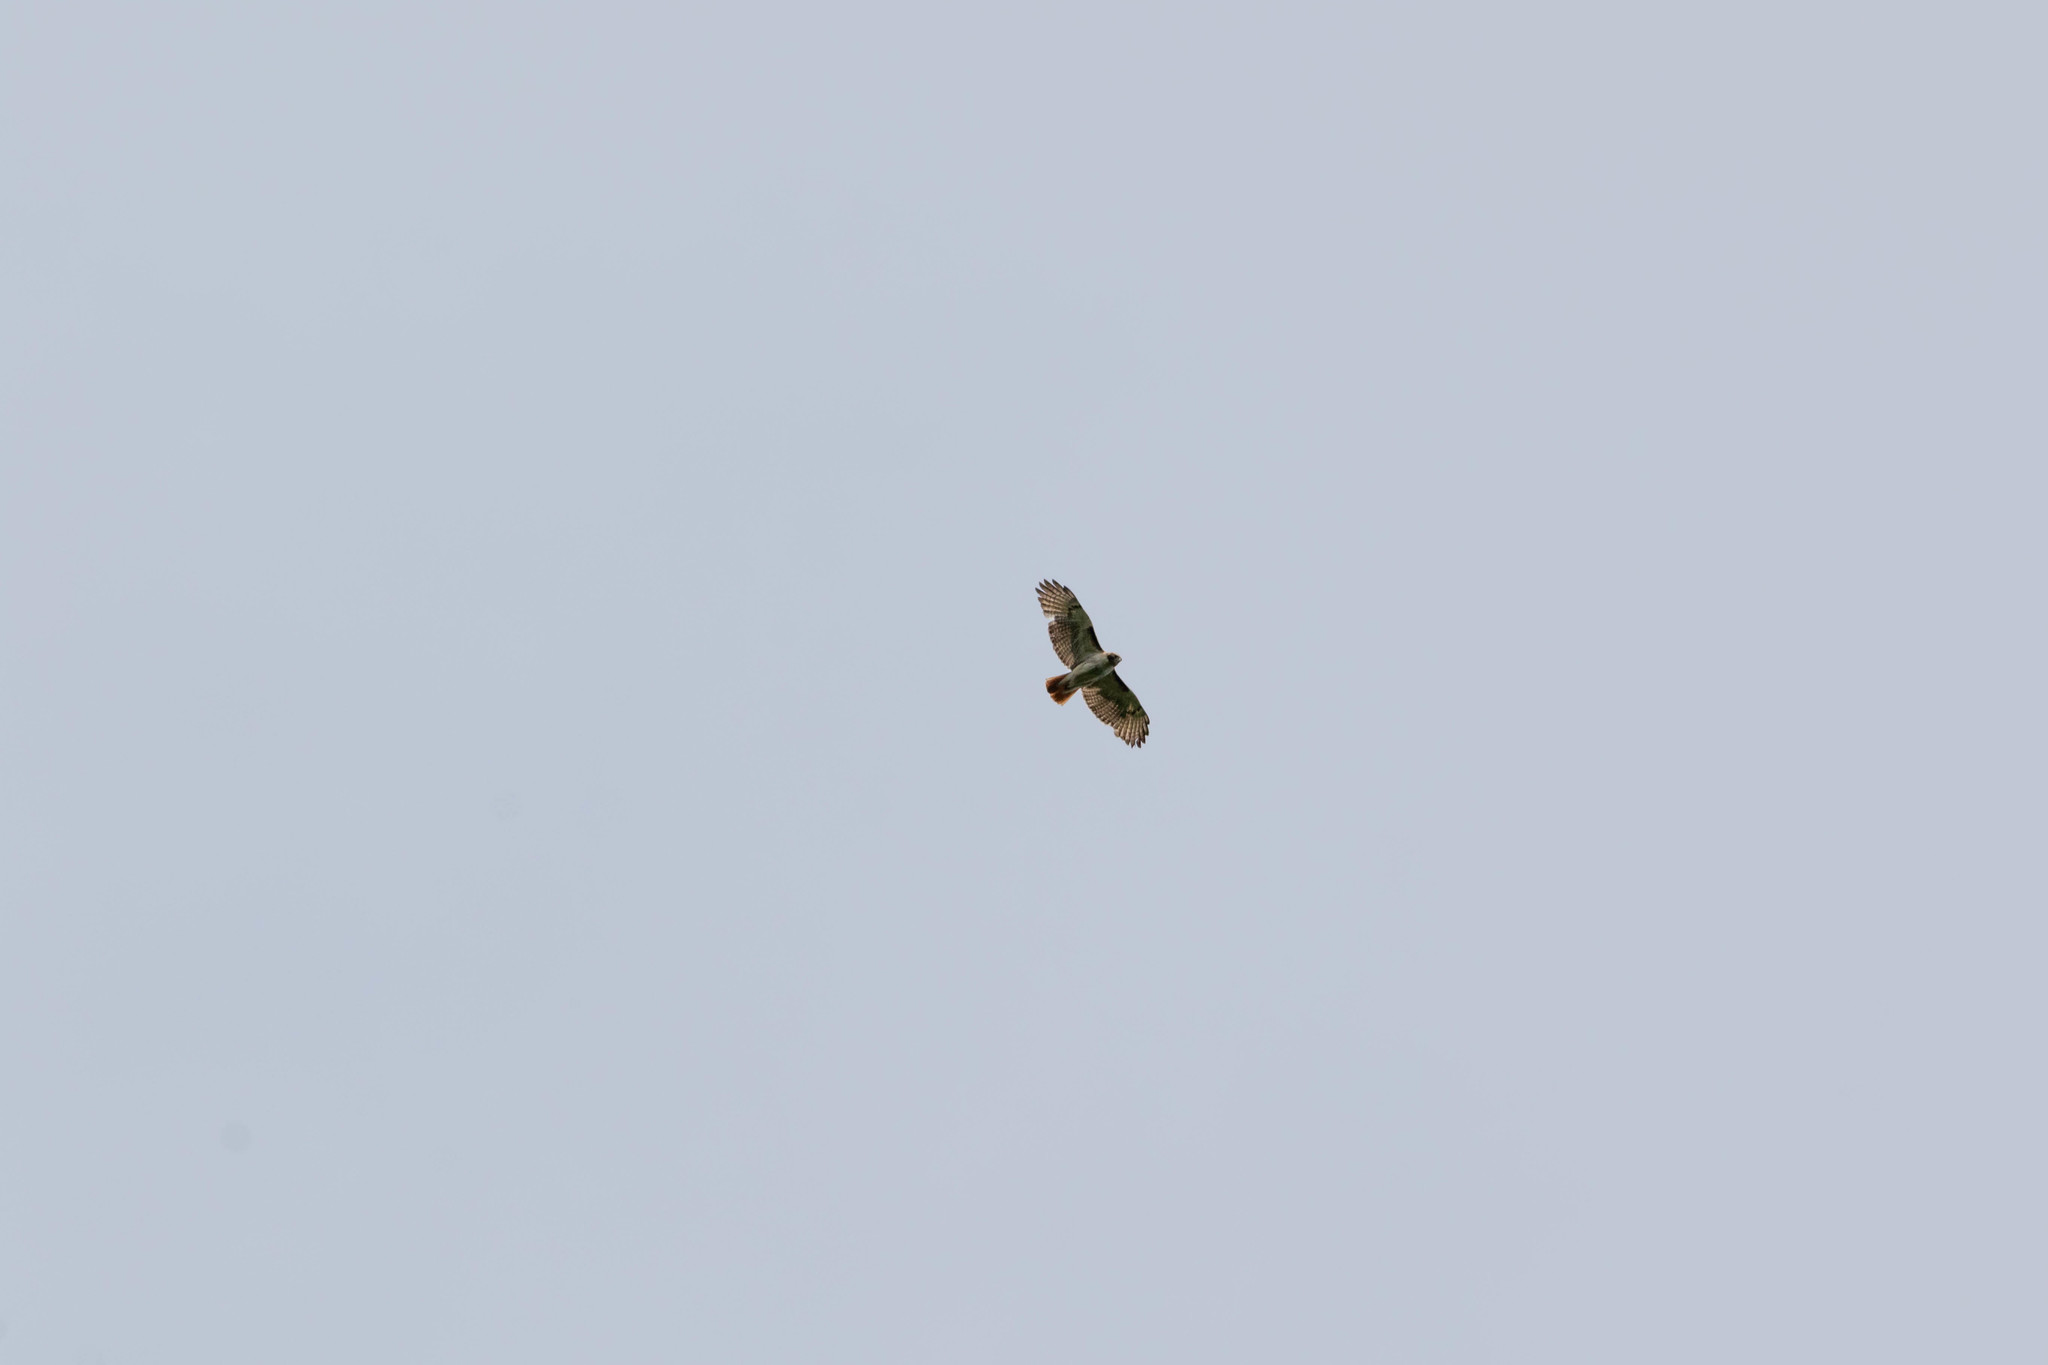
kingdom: Animalia
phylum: Chordata
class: Aves
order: Accipitriformes
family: Accipitridae
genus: Buteo
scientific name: Buteo jamaicensis
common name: Red-tailed hawk
